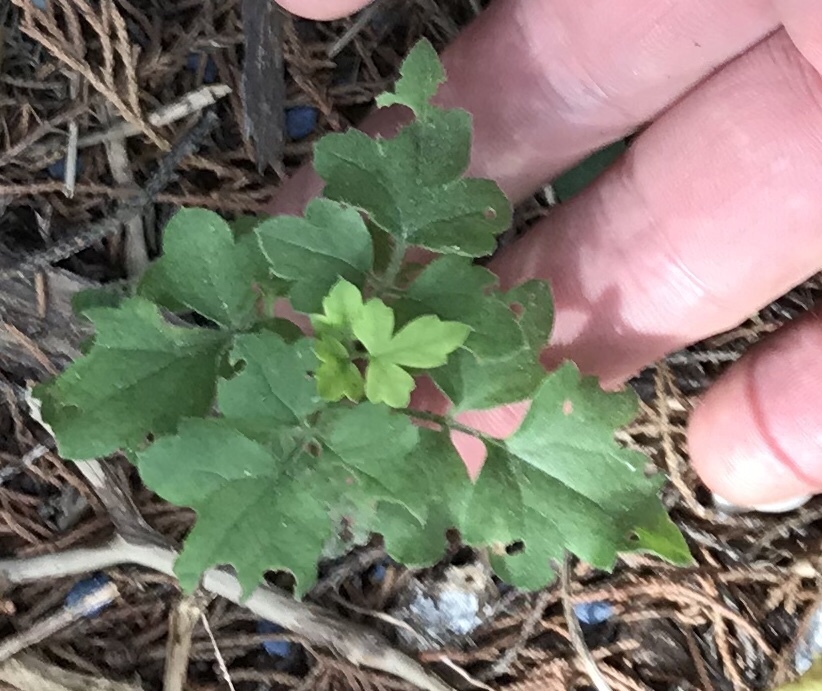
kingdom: Plantae
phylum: Tracheophyta
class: Magnoliopsida
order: Ranunculales
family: Ranunculaceae
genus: Clematis
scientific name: Clematis drummondii
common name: Texas virgin's bower
